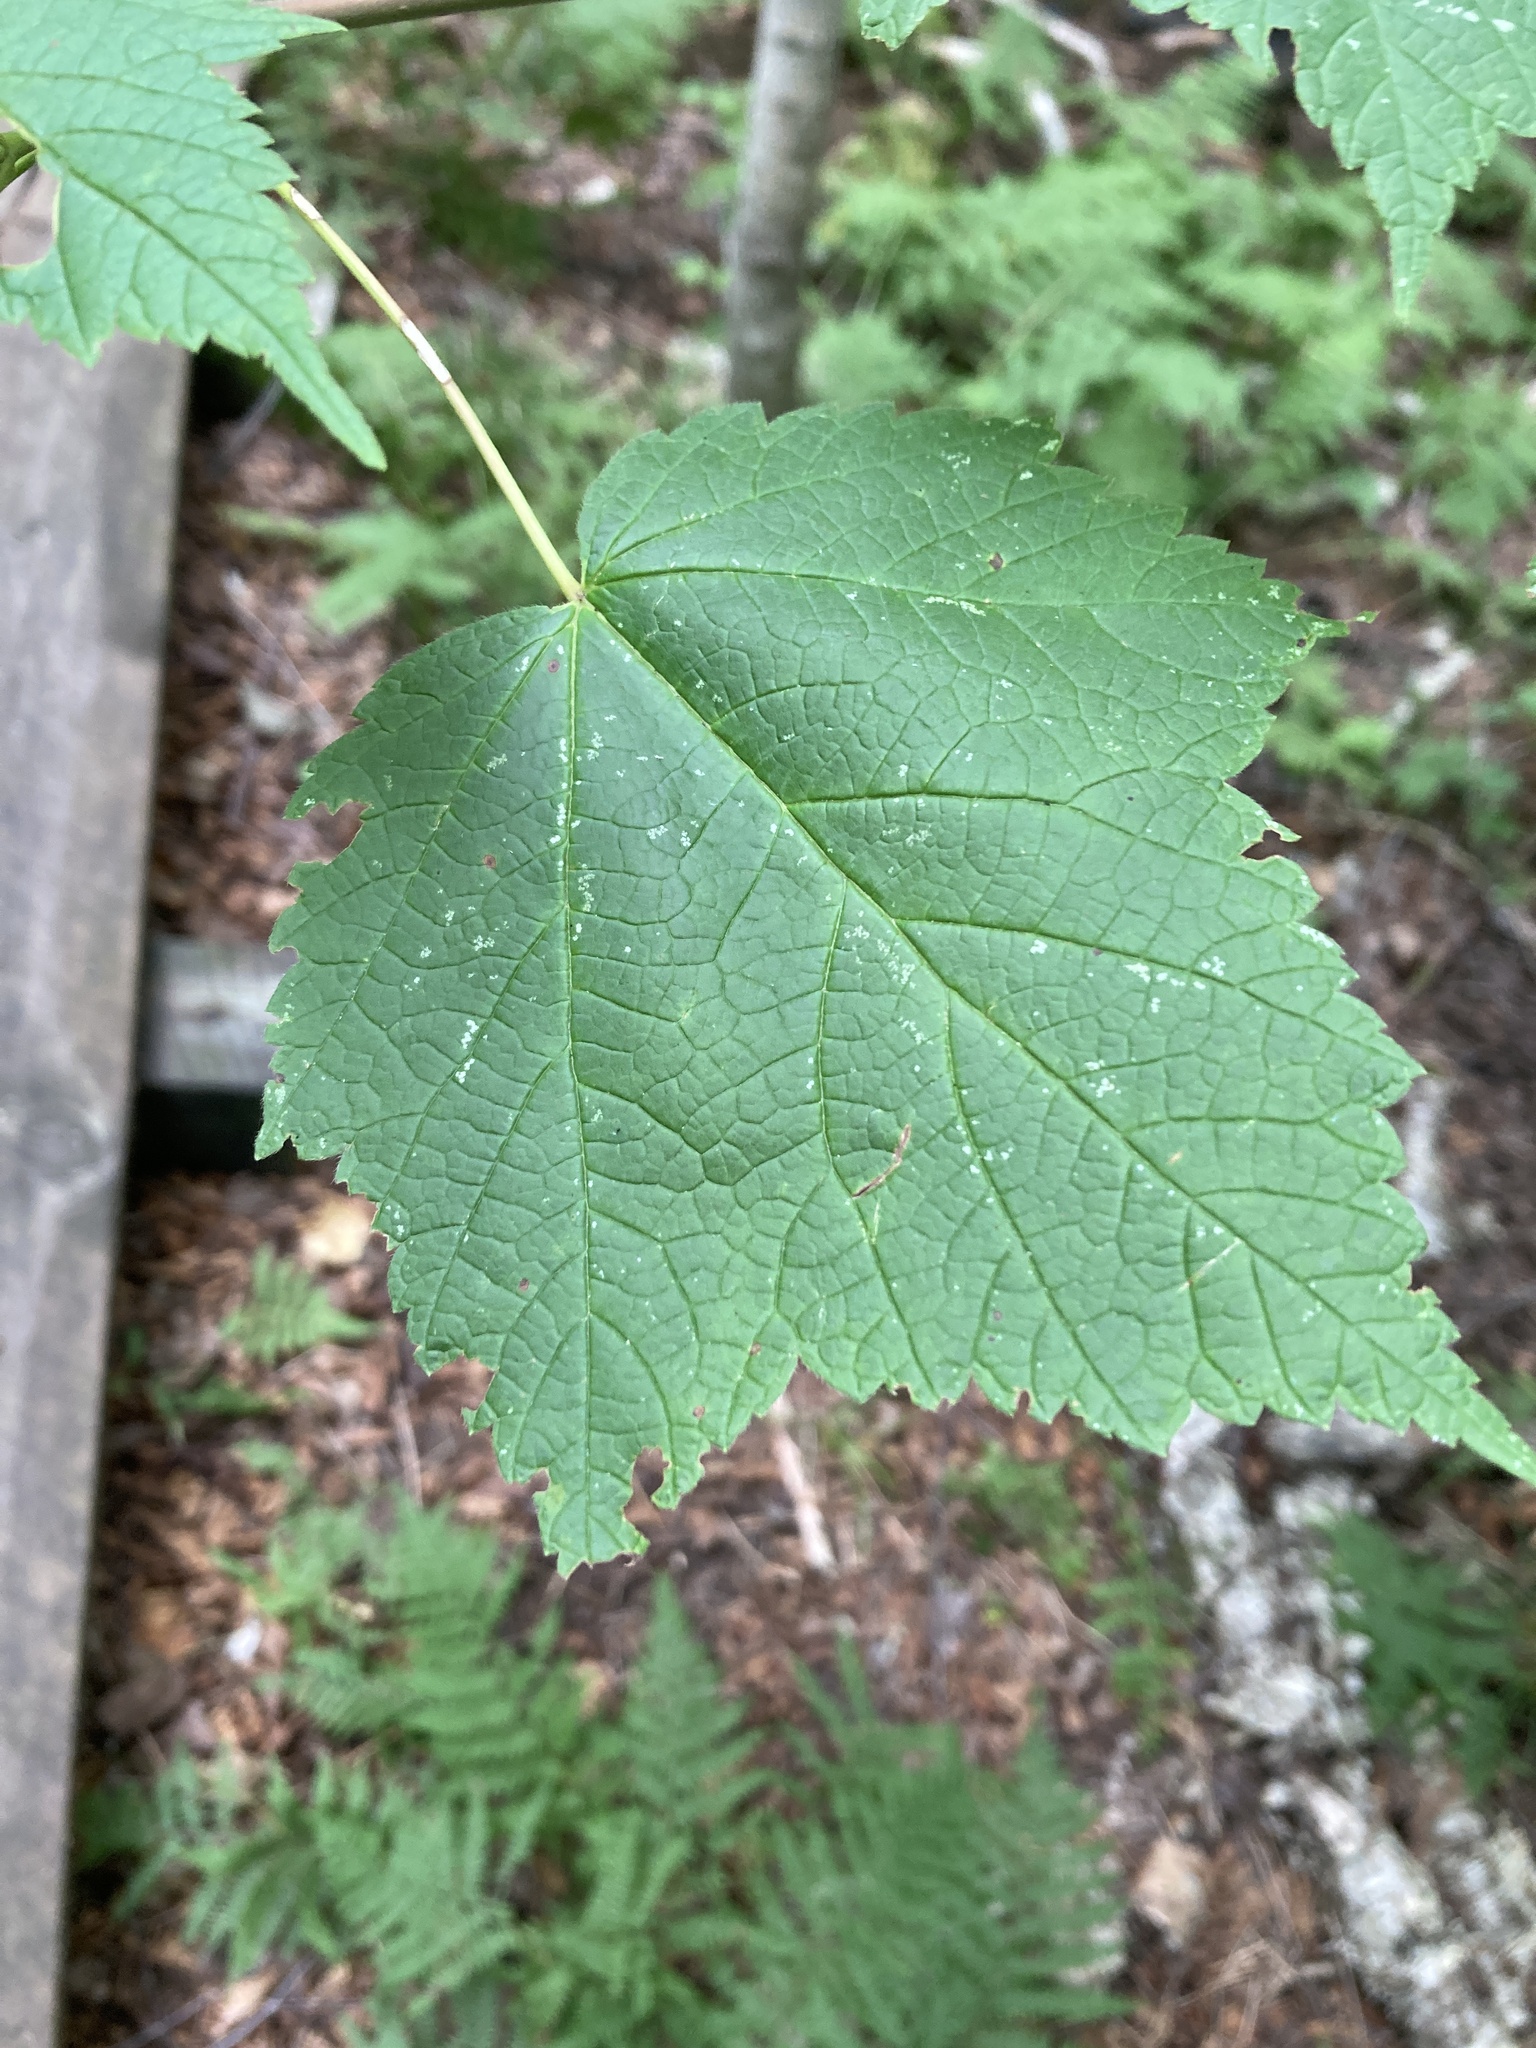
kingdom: Plantae
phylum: Tracheophyta
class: Magnoliopsida
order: Sapindales
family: Sapindaceae
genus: Acer
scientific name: Acer spicatum
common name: Mountain maple
